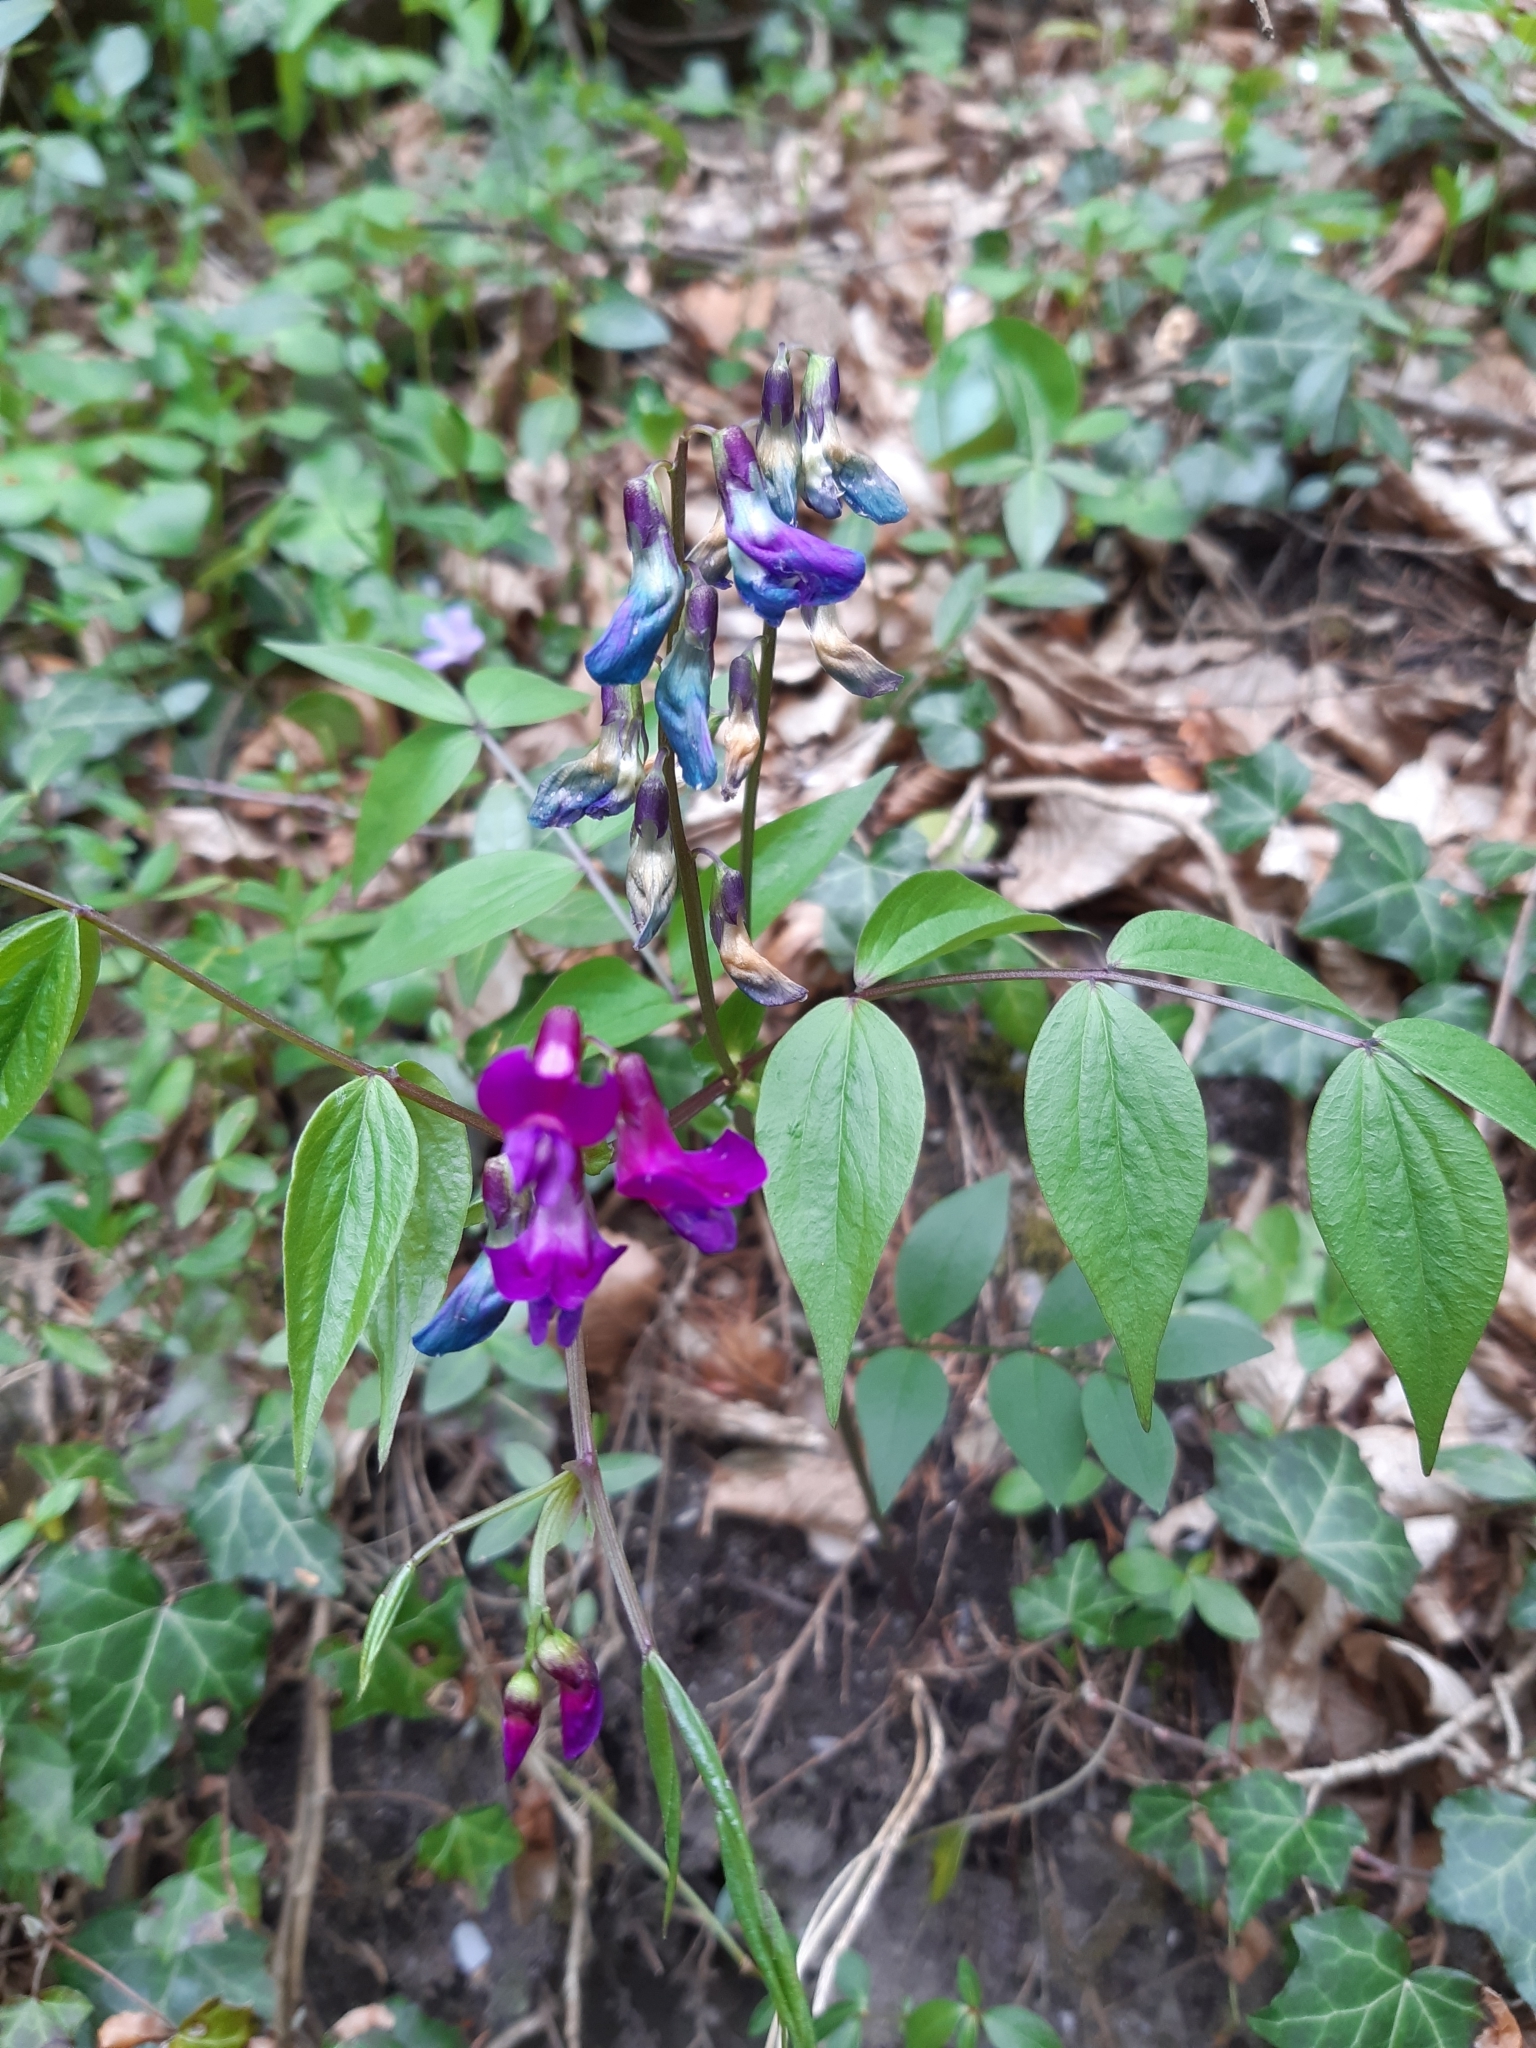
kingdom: Plantae
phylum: Tracheophyta
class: Magnoliopsida
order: Fabales
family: Fabaceae
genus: Lathyrus
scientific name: Lathyrus vernus
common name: Spring pea
